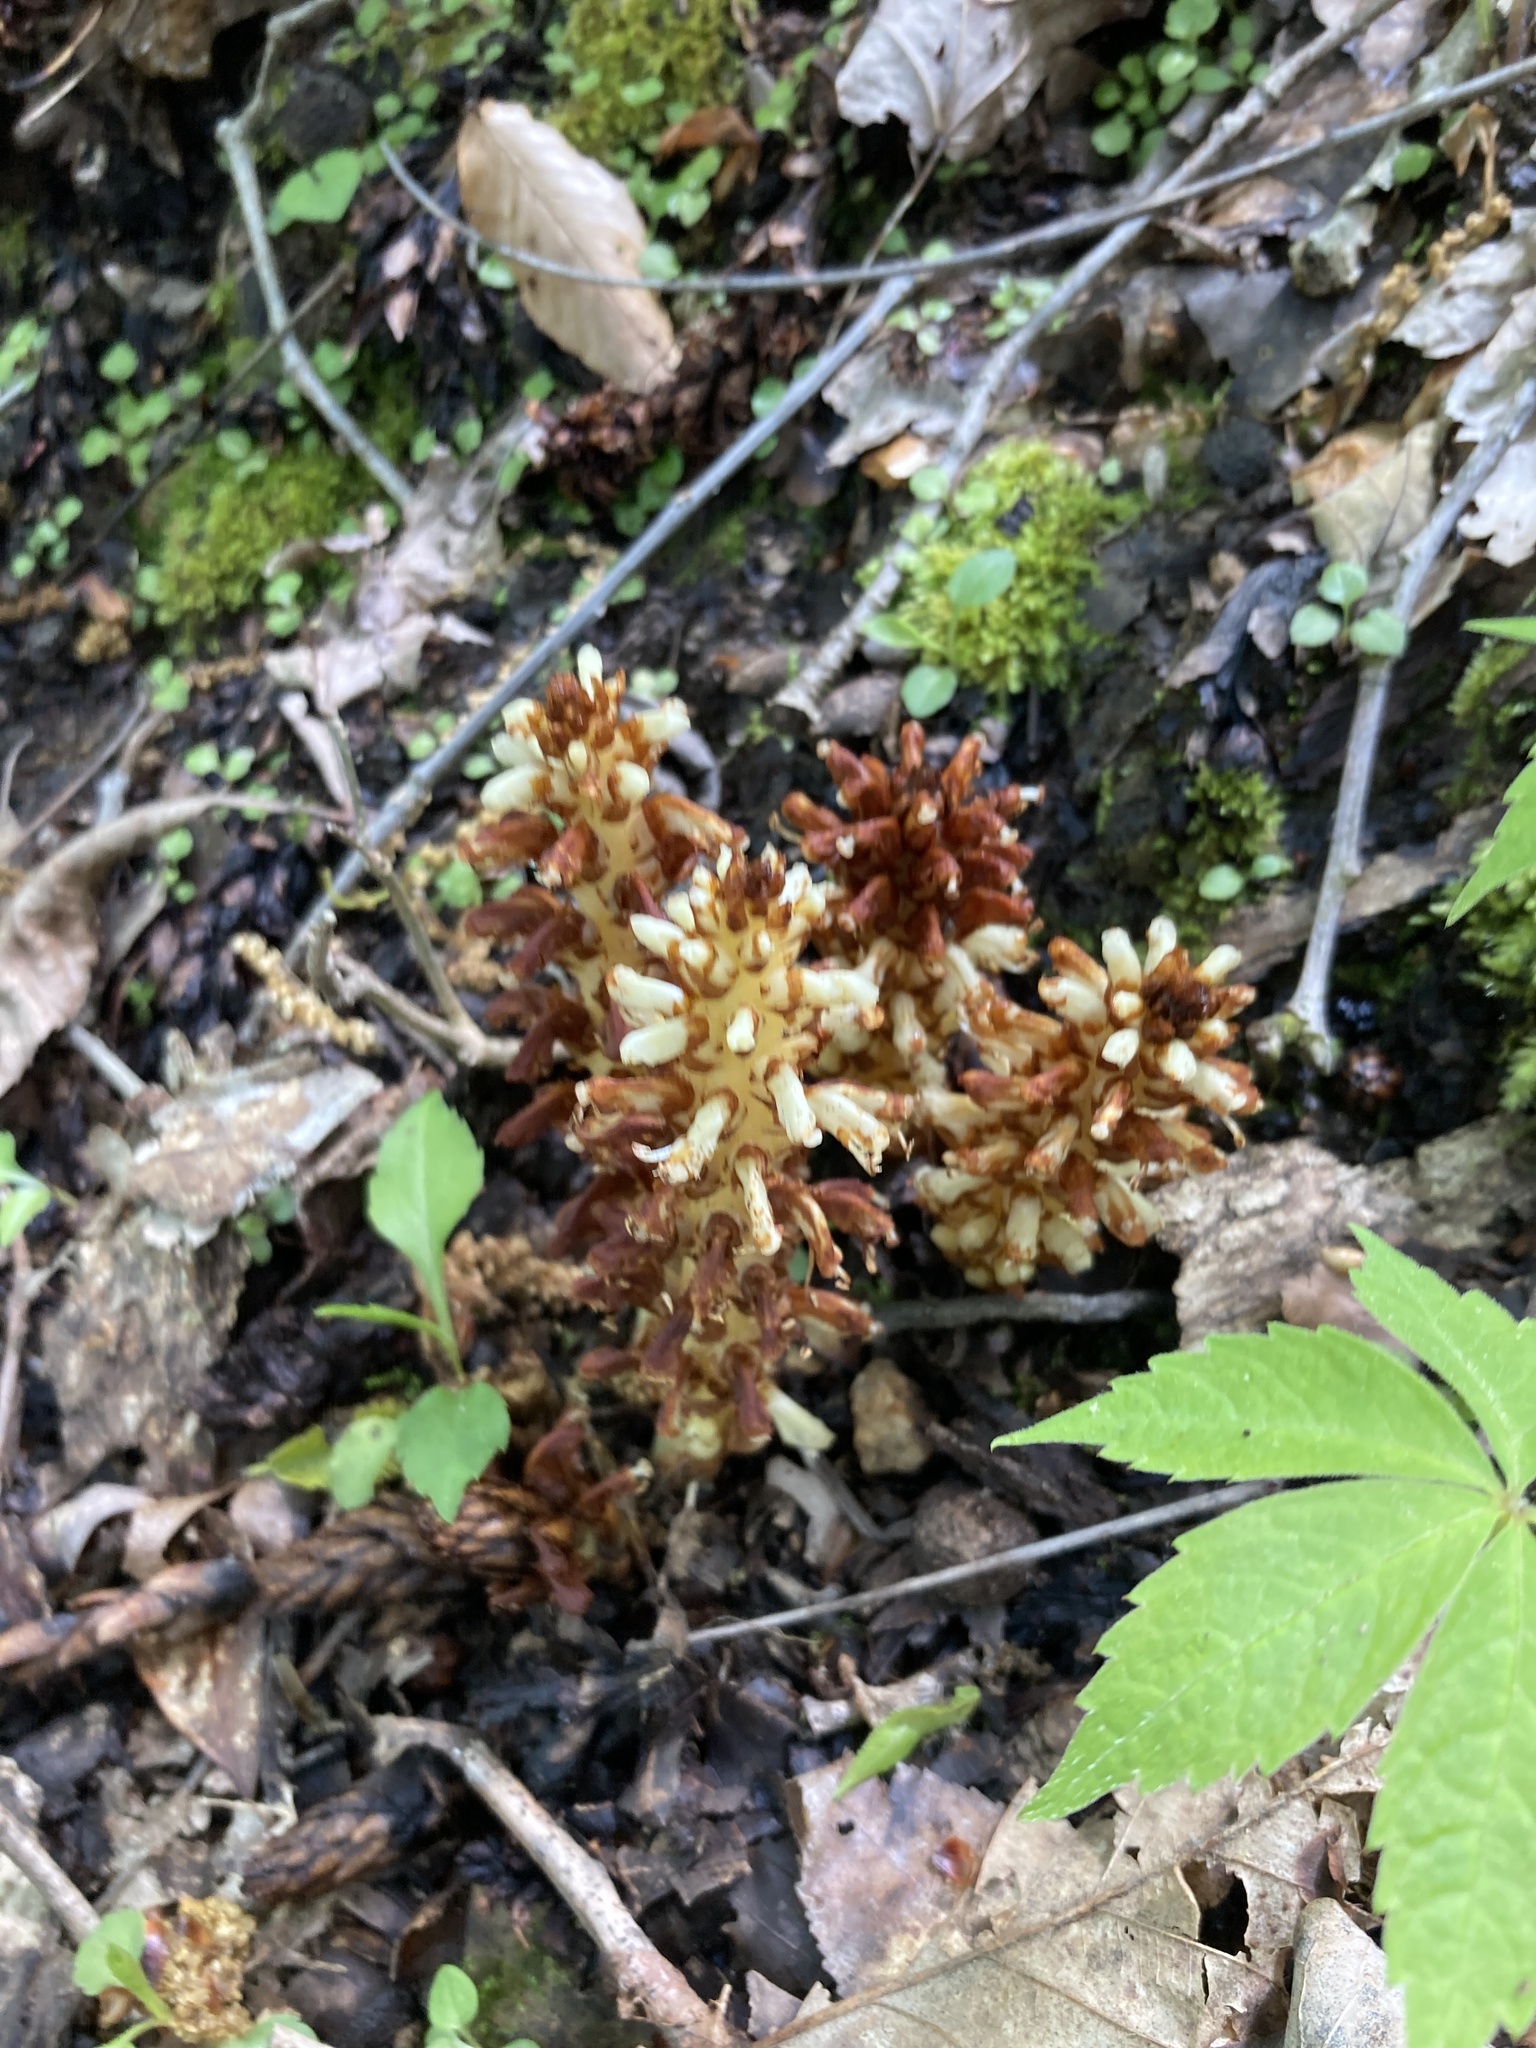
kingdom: Plantae
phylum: Tracheophyta
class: Magnoliopsida
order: Lamiales
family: Orobanchaceae
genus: Conopholis
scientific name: Conopholis americana
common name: American cancer-root
